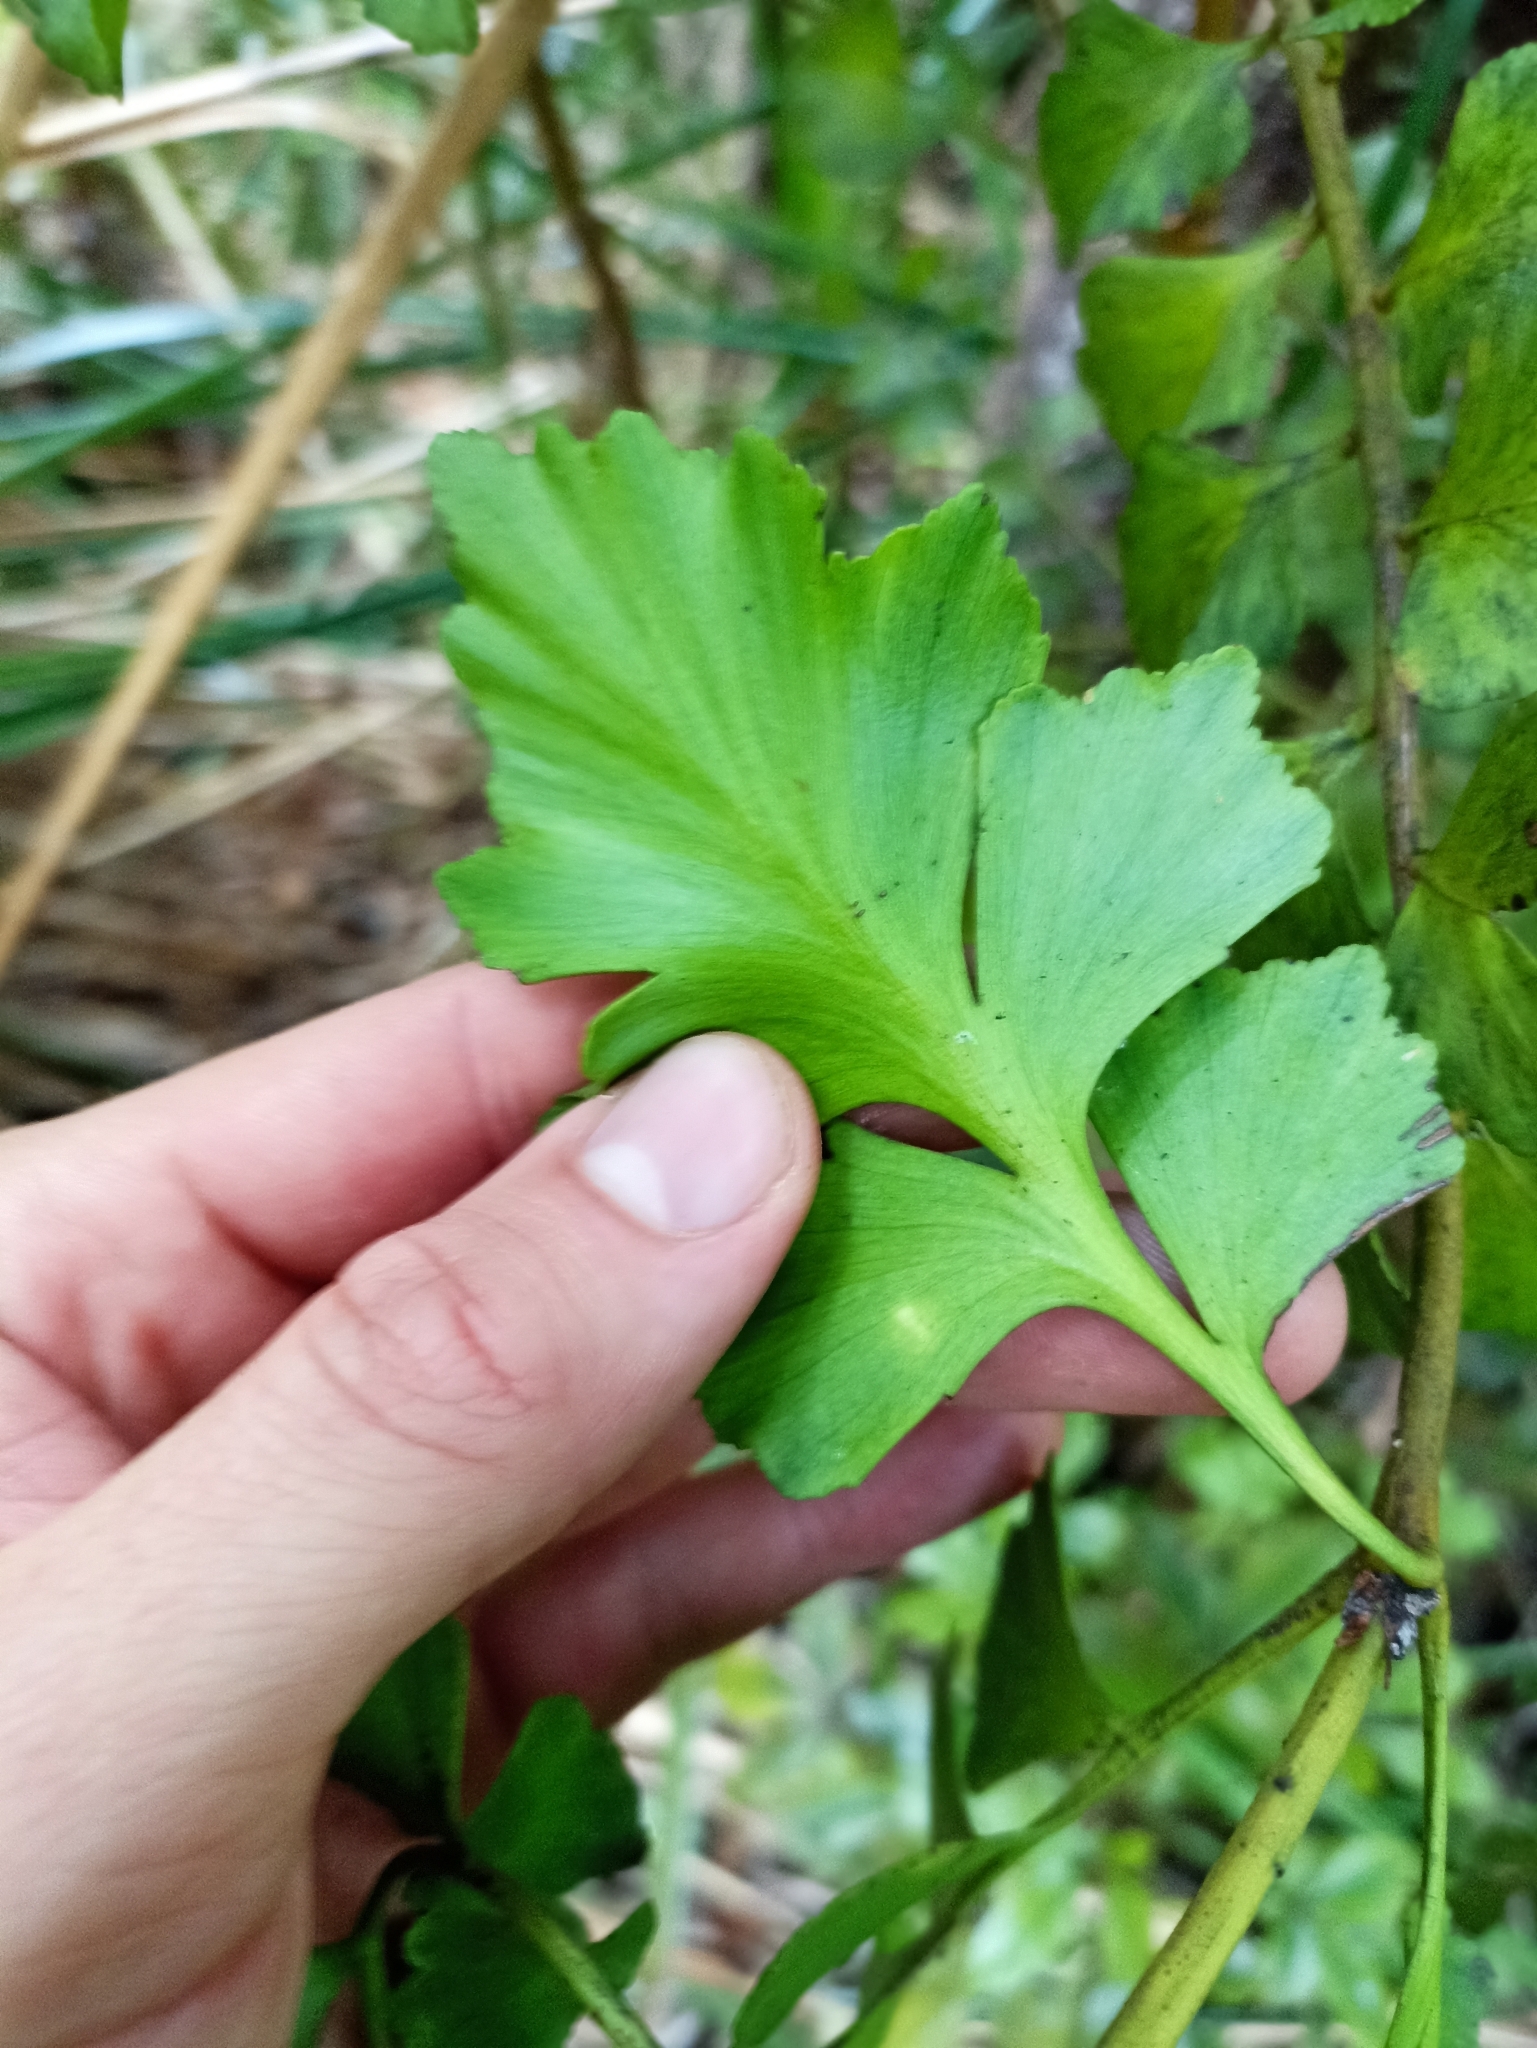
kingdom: Plantae
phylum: Tracheophyta
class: Pinopsida
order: Pinales
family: Phyllocladaceae
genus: Phyllocladus
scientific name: Phyllocladus toatoa
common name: Celery-top pine
